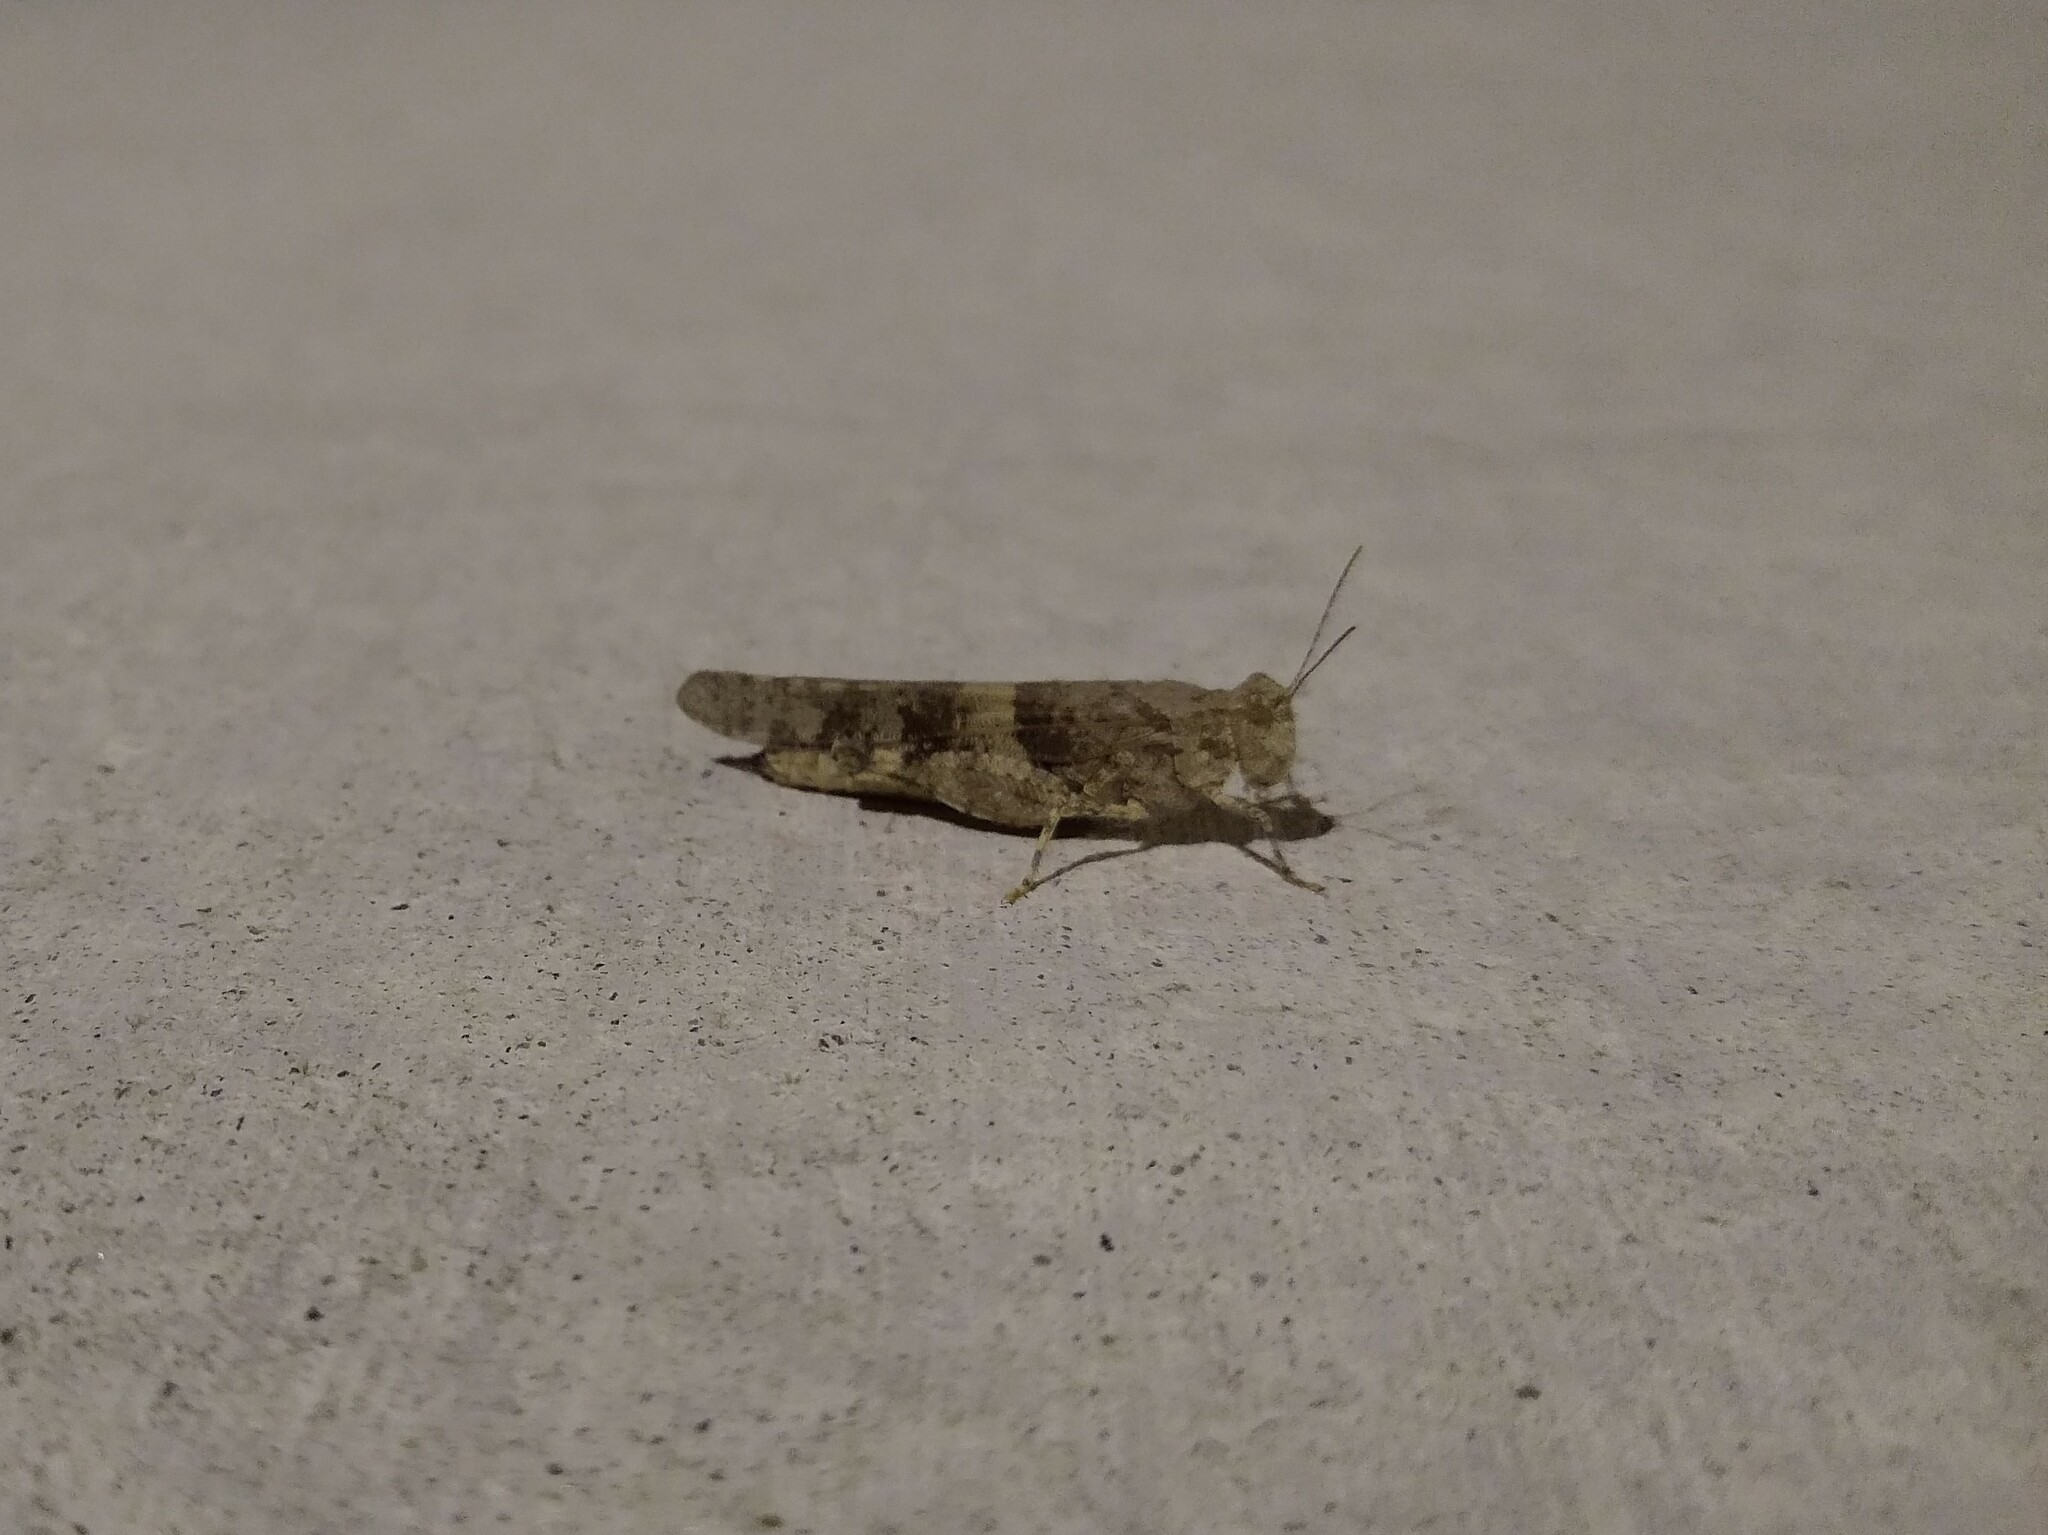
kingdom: Animalia
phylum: Arthropoda
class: Insecta
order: Orthoptera
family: Acrididae
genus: Trimerotropis
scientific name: Trimerotropis pallidipennis
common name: Pallid-winged grasshopper
